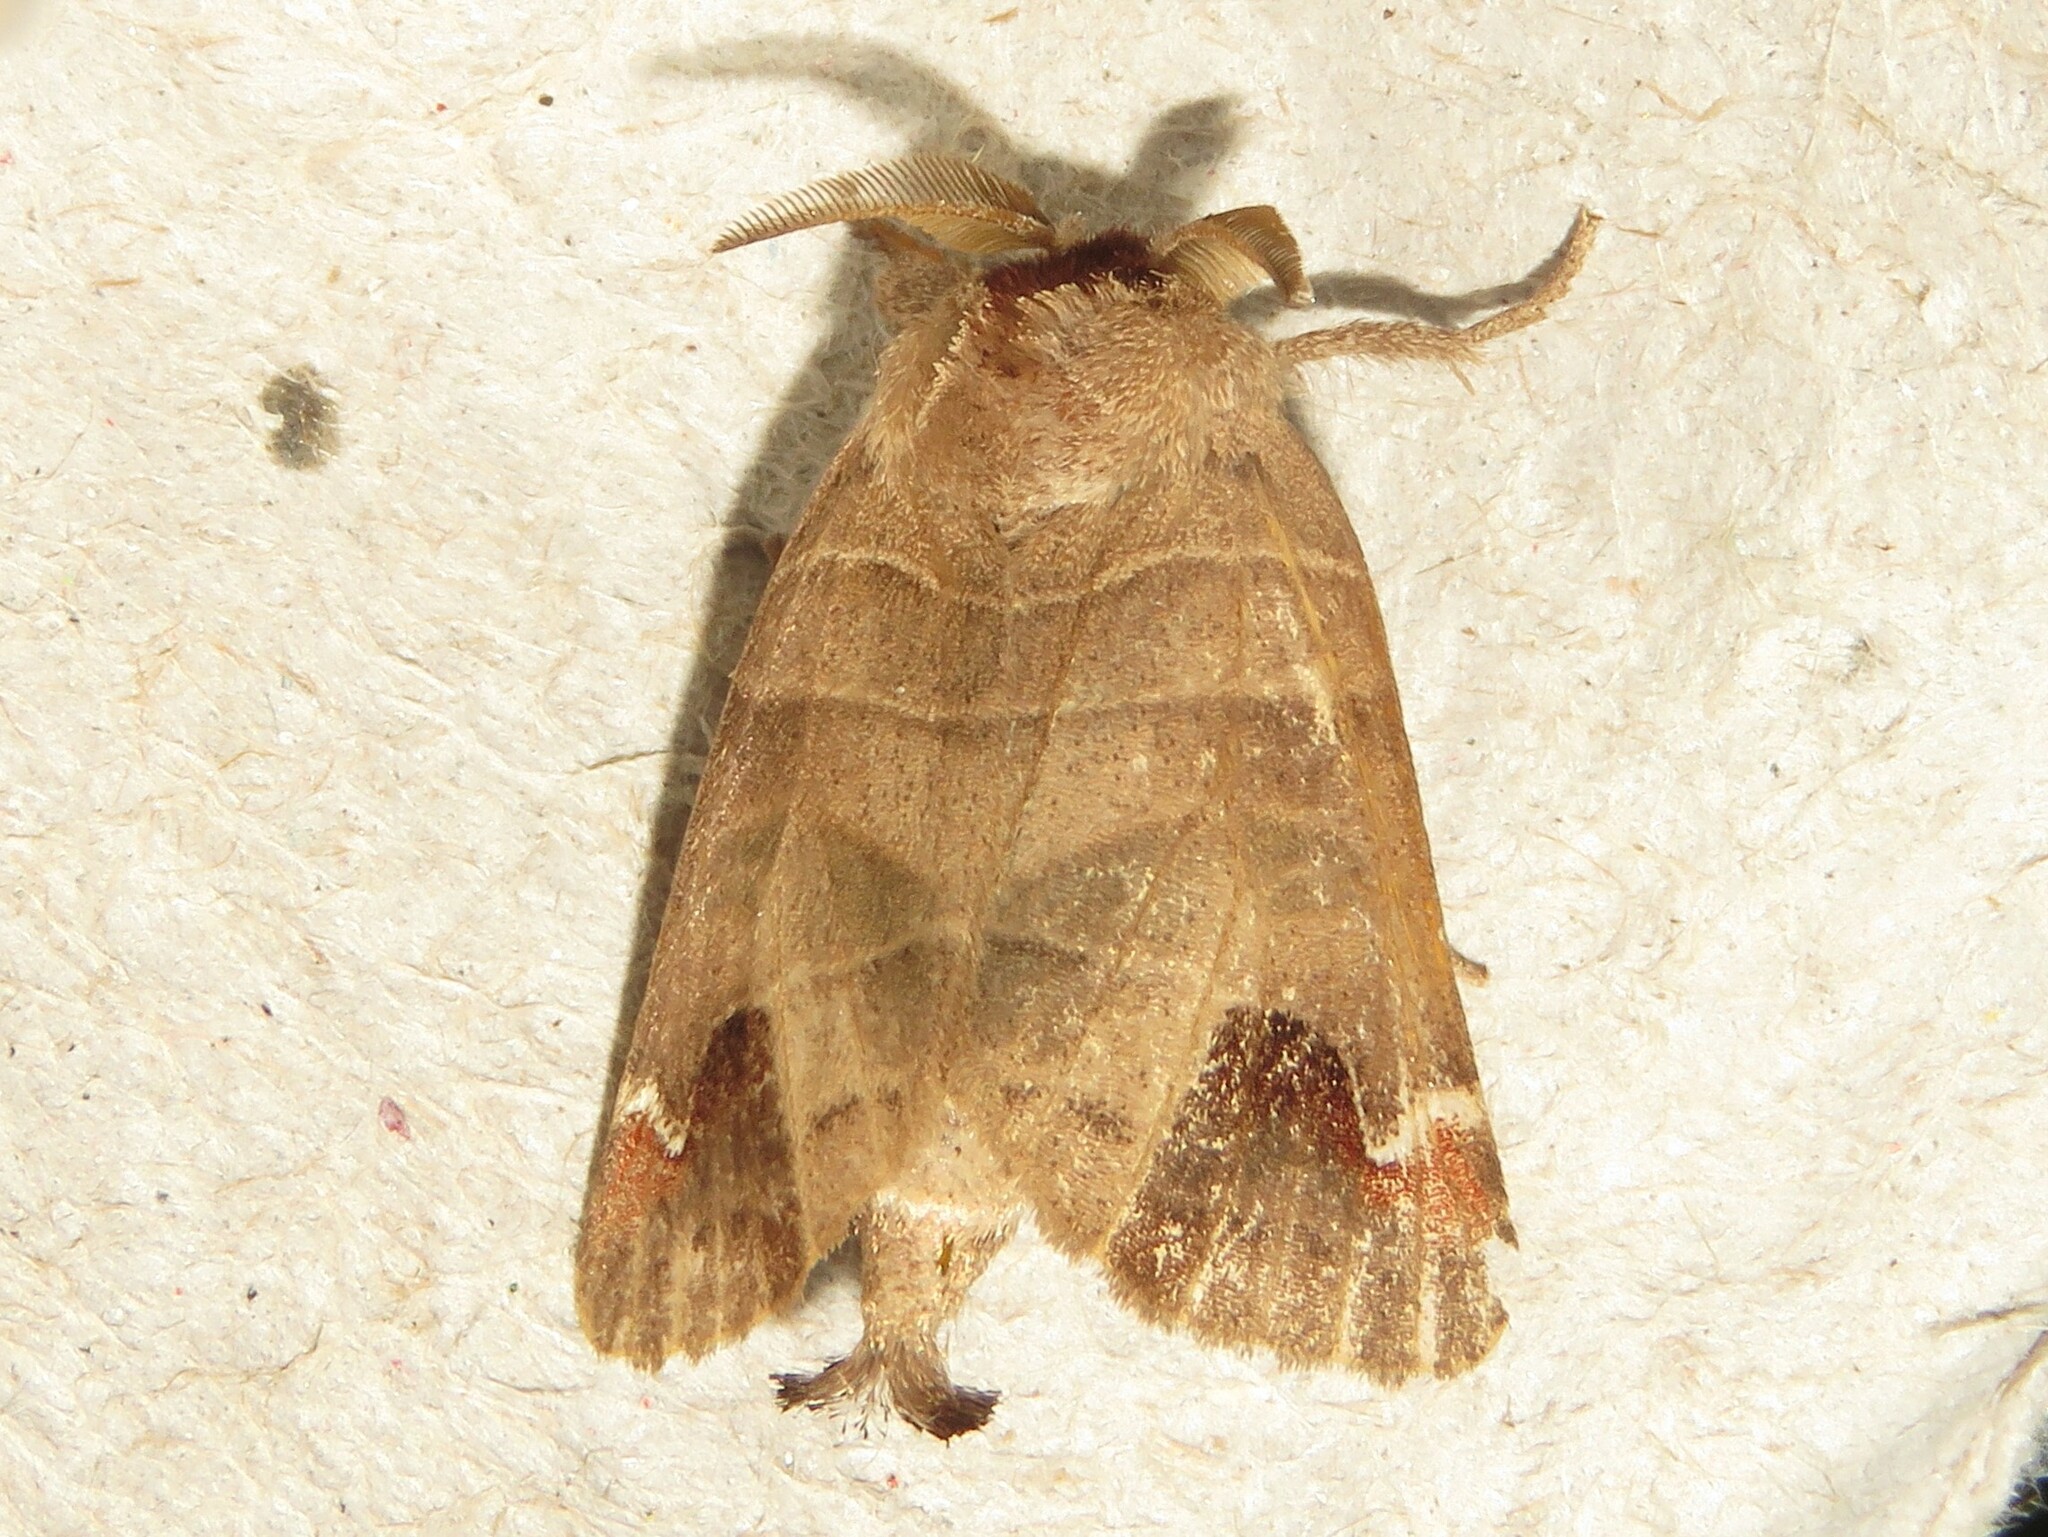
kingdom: Animalia
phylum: Arthropoda
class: Insecta
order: Lepidoptera
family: Notodontidae
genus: Clostera
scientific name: Clostera albosigma
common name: Sigmoid prominent
